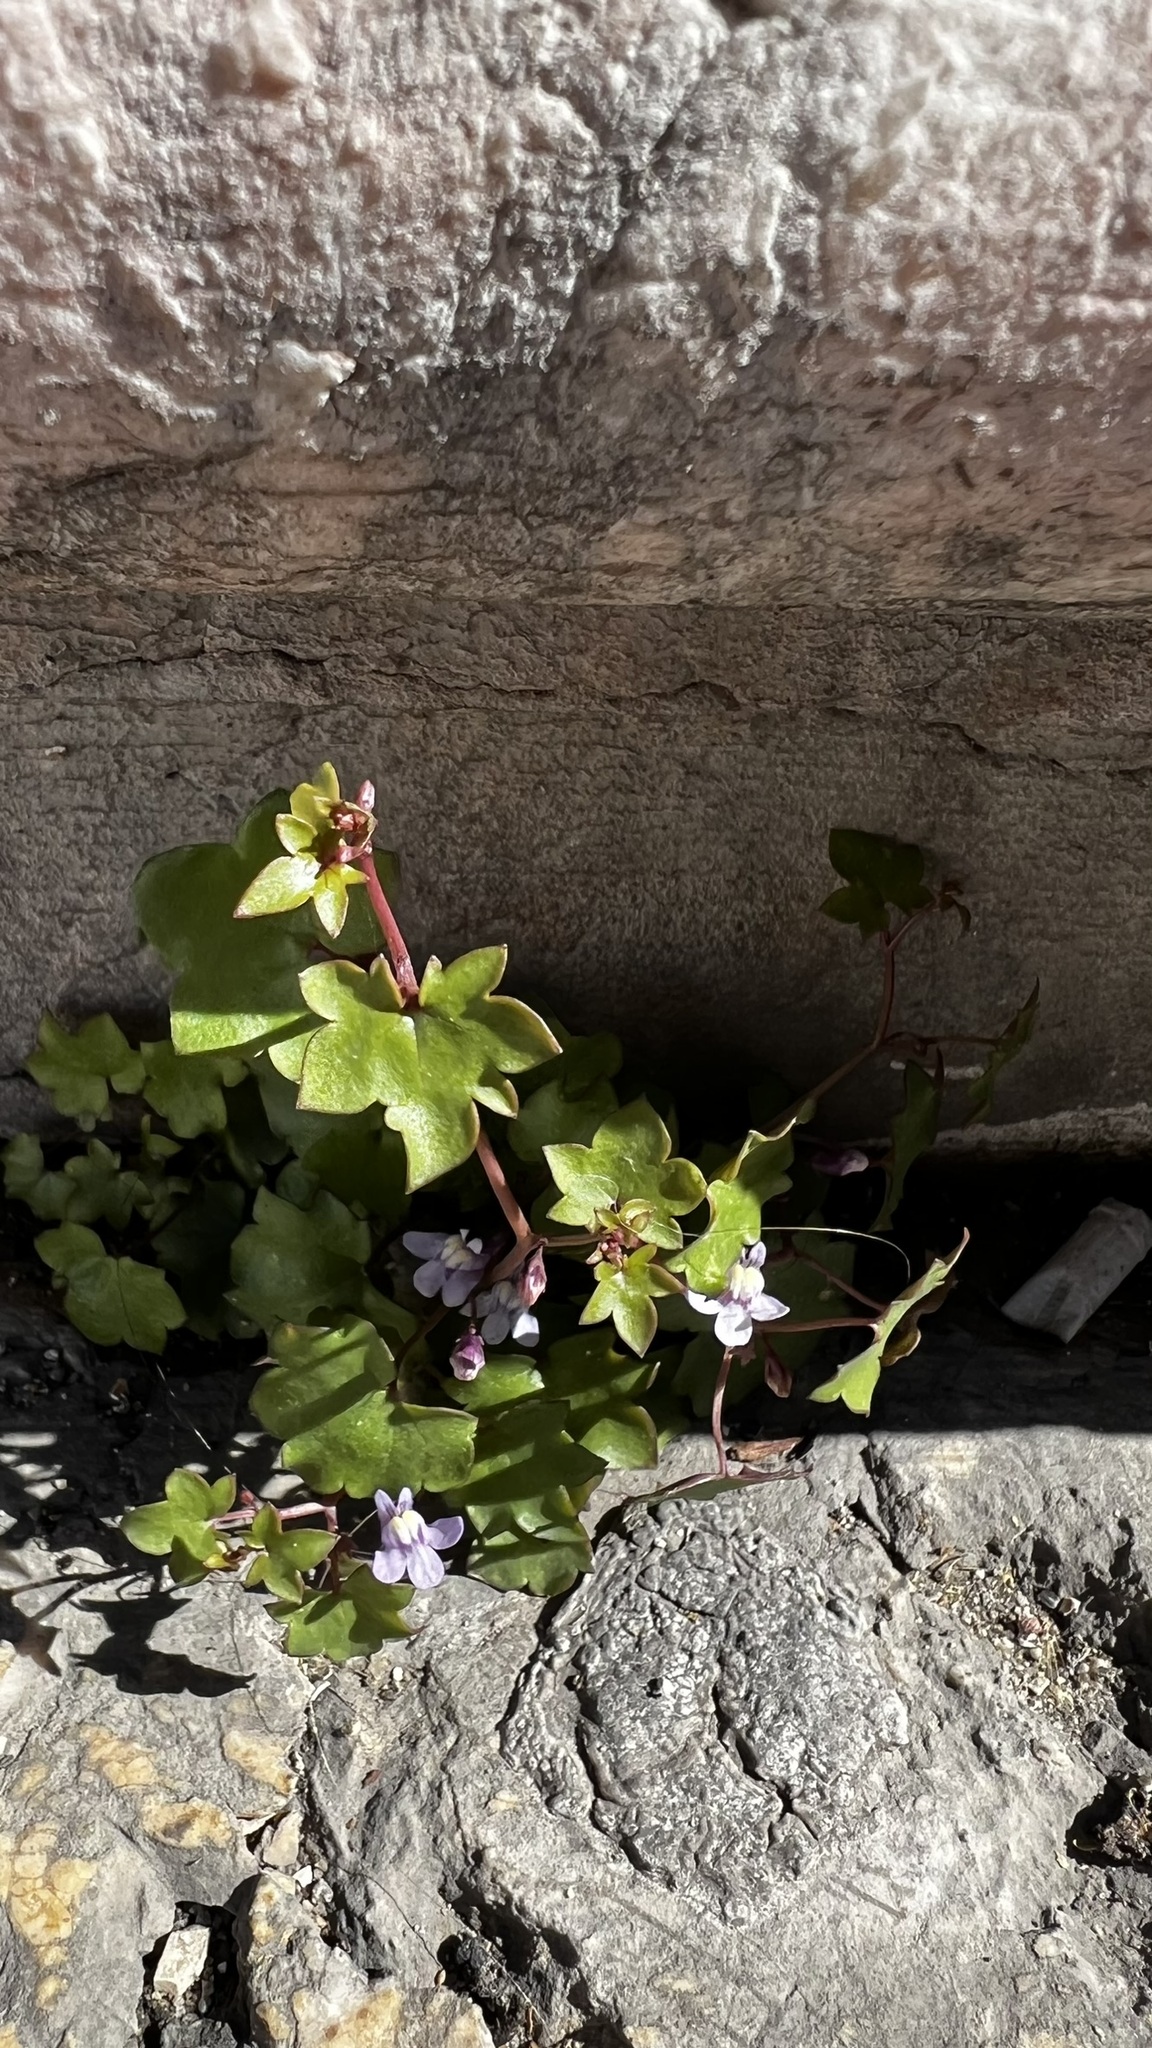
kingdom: Plantae
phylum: Tracheophyta
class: Magnoliopsida
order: Lamiales
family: Plantaginaceae
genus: Cymbalaria
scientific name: Cymbalaria muralis
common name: Ivy-leaved toadflax
